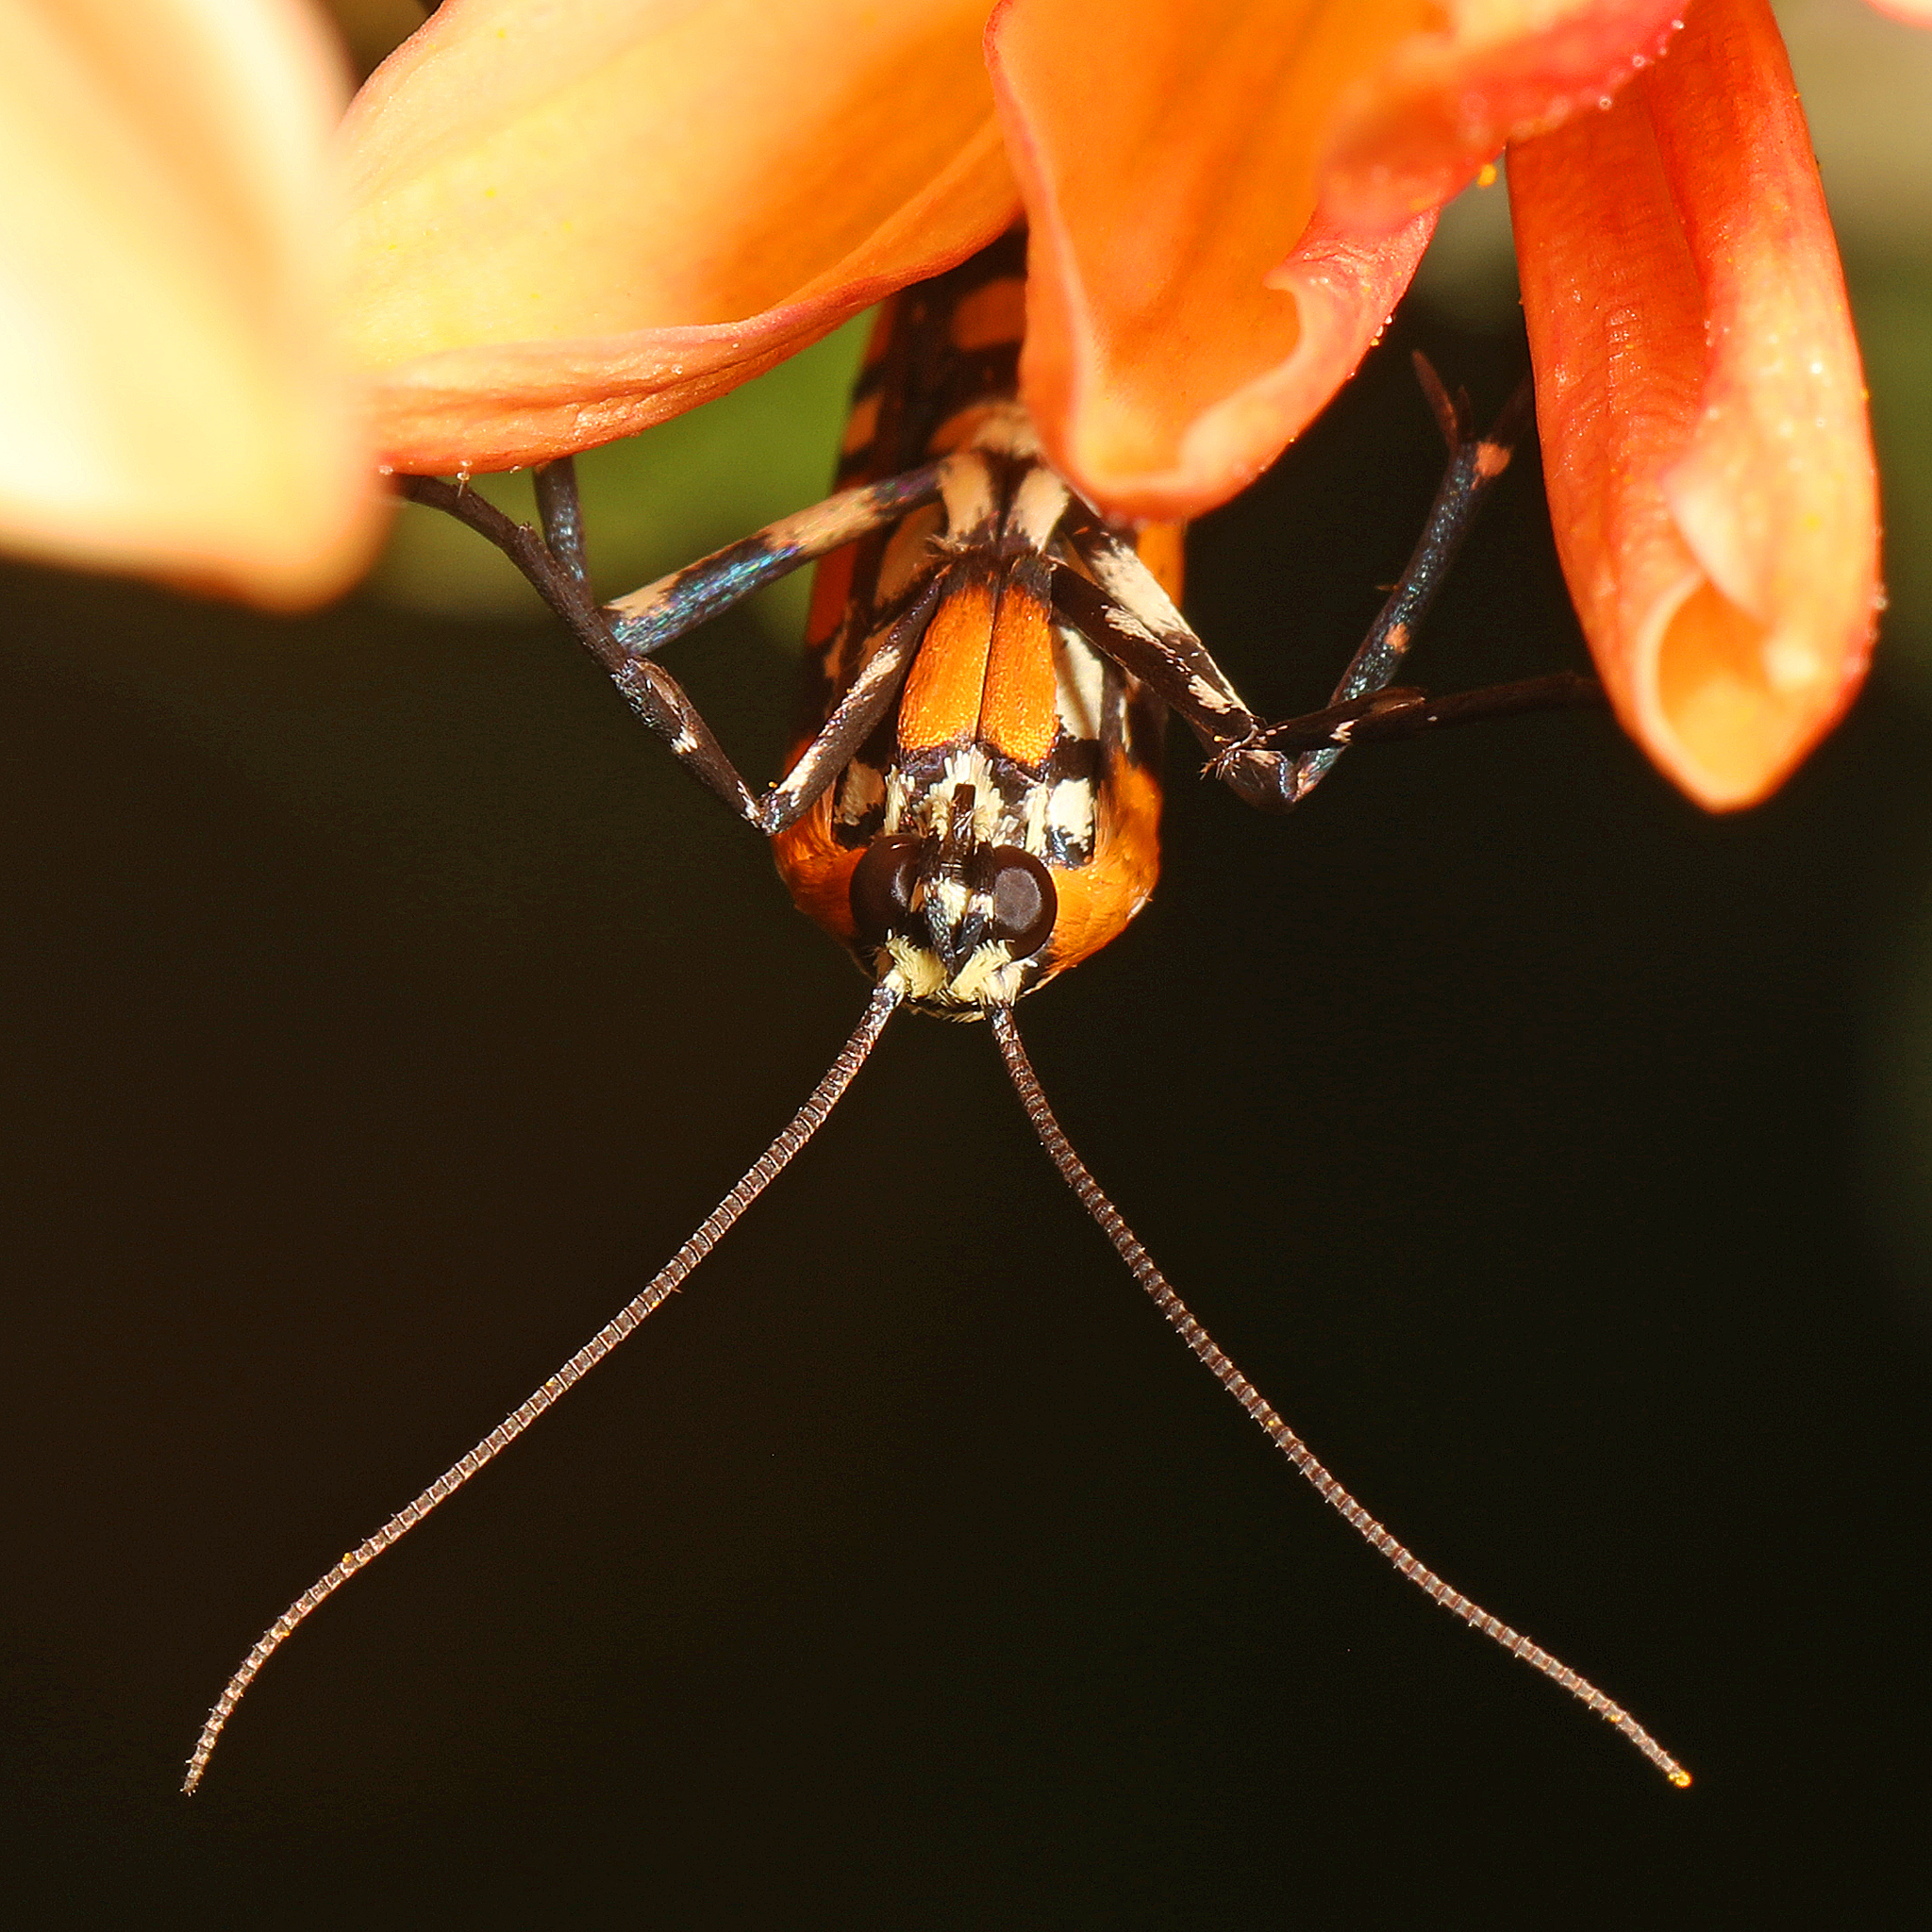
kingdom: Animalia
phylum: Arthropoda
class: Insecta
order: Lepidoptera
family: Attevidae
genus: Atteva
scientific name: Atteva punctella
